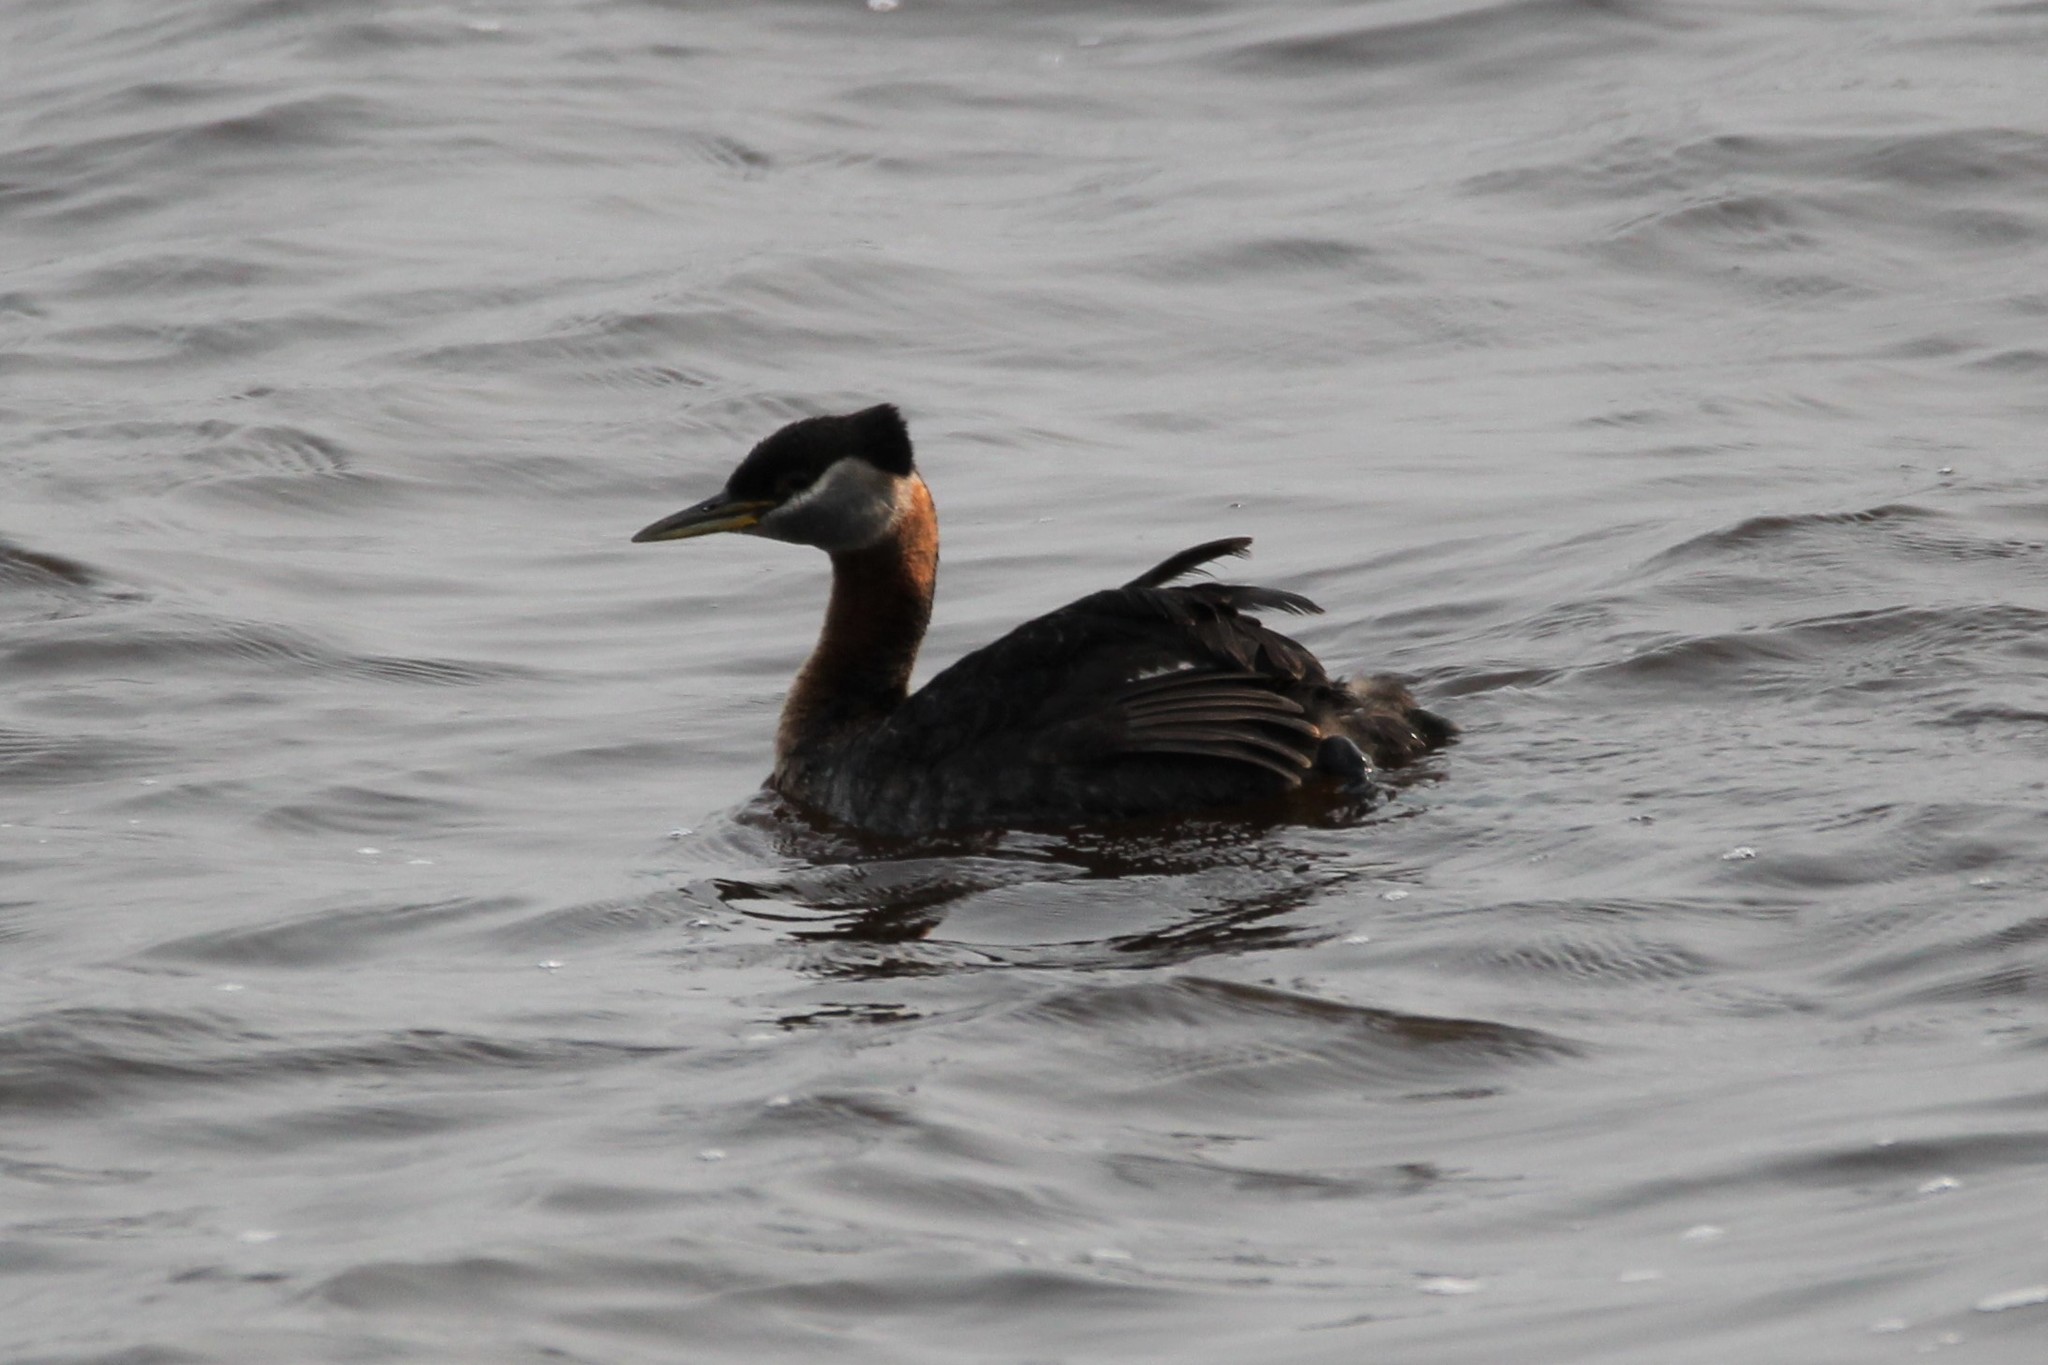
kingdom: Animalia
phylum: Chordata
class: Aves
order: Podicipediformes
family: Podicipedidae
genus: Podiceps
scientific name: Podiceps grisegena
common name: Red-necked grebe
